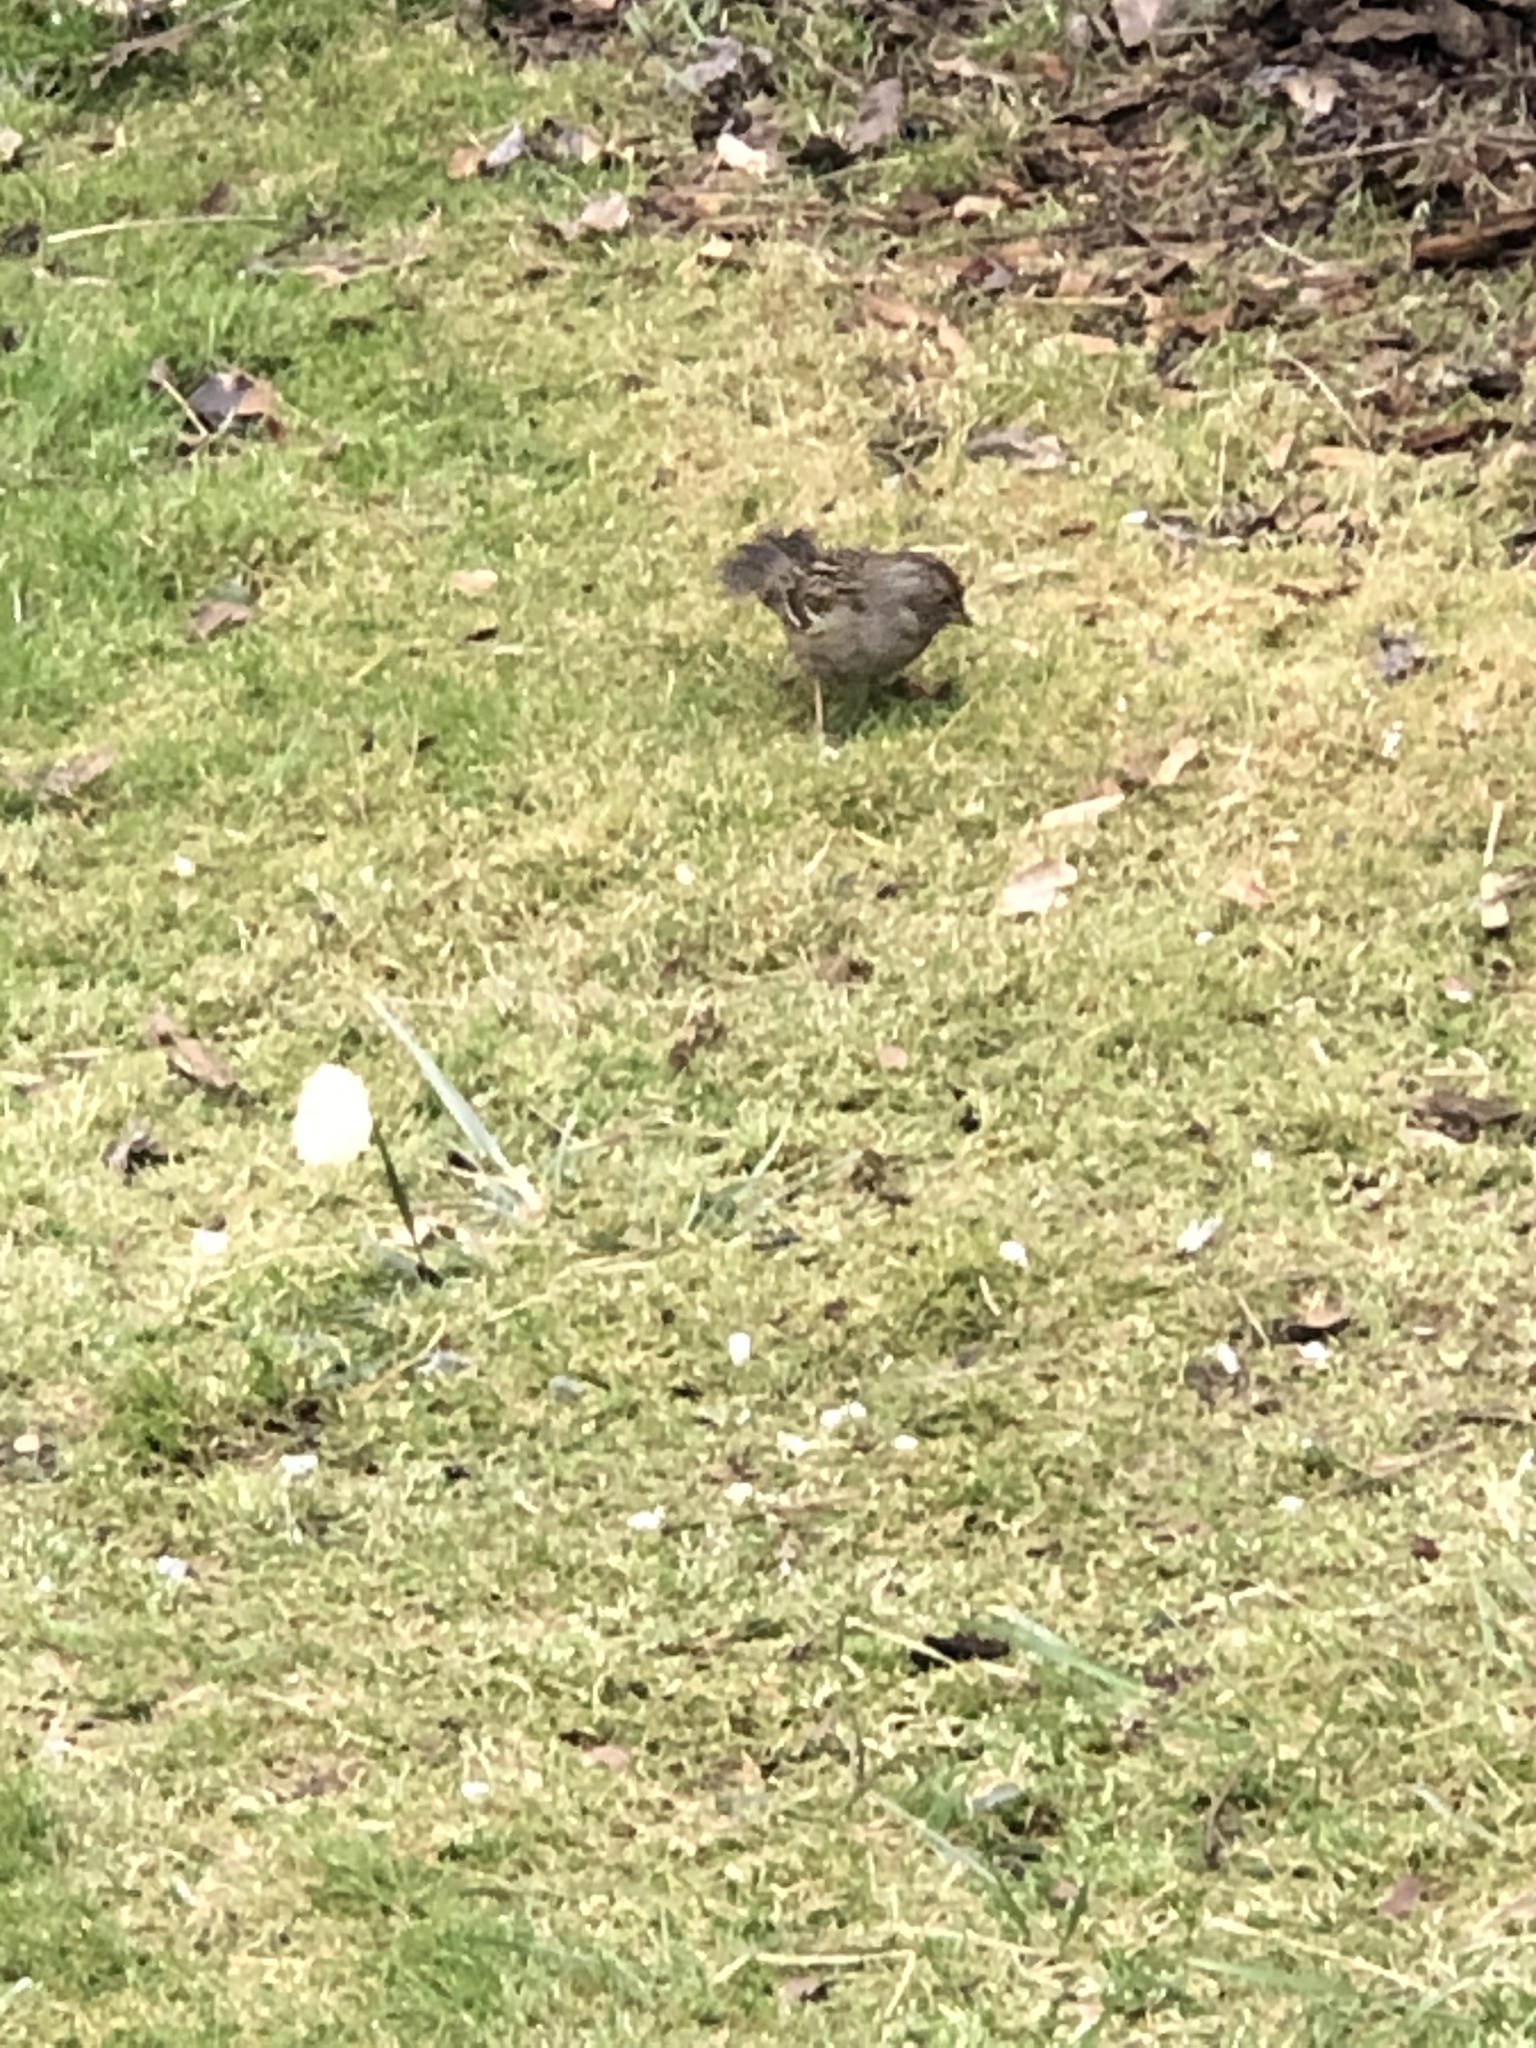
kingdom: Animalia
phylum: Chordata
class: Aves
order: Passeriformes
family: Passerellidae
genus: Zonotrichia
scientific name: Zonotrichia atricapilla
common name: Golden-crowned sparrow
